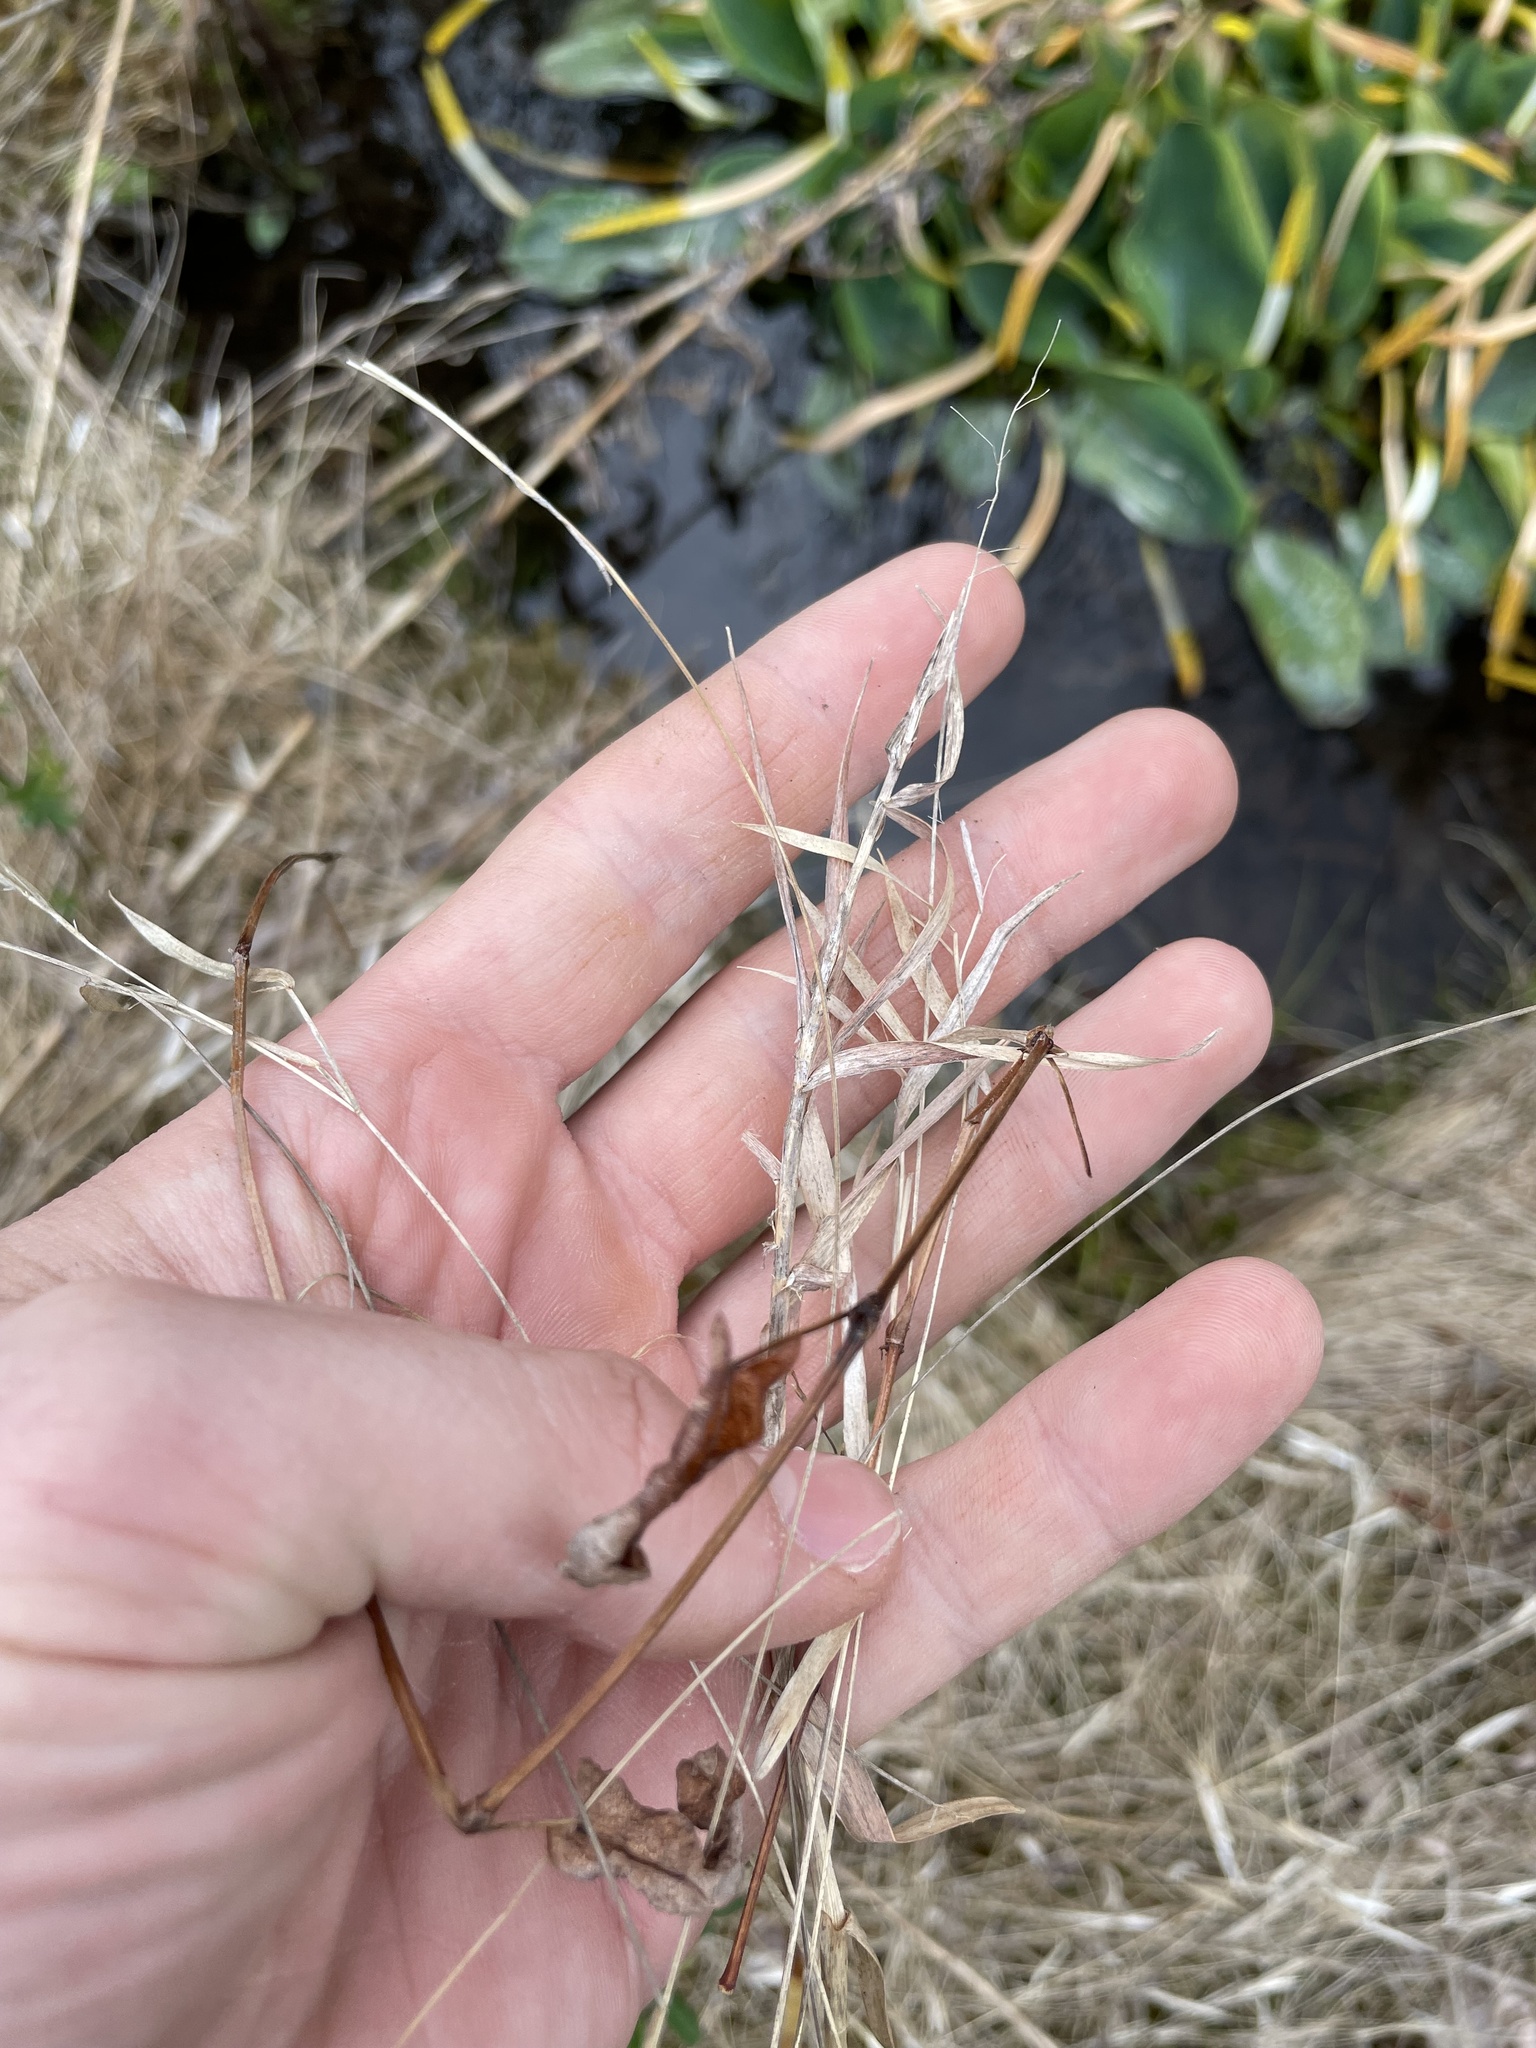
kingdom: Plantae
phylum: Tracheophyta
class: Liliopsida
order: Poales
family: Poaceae
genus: Dichanthelium
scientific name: Dichanthelium lucidum
